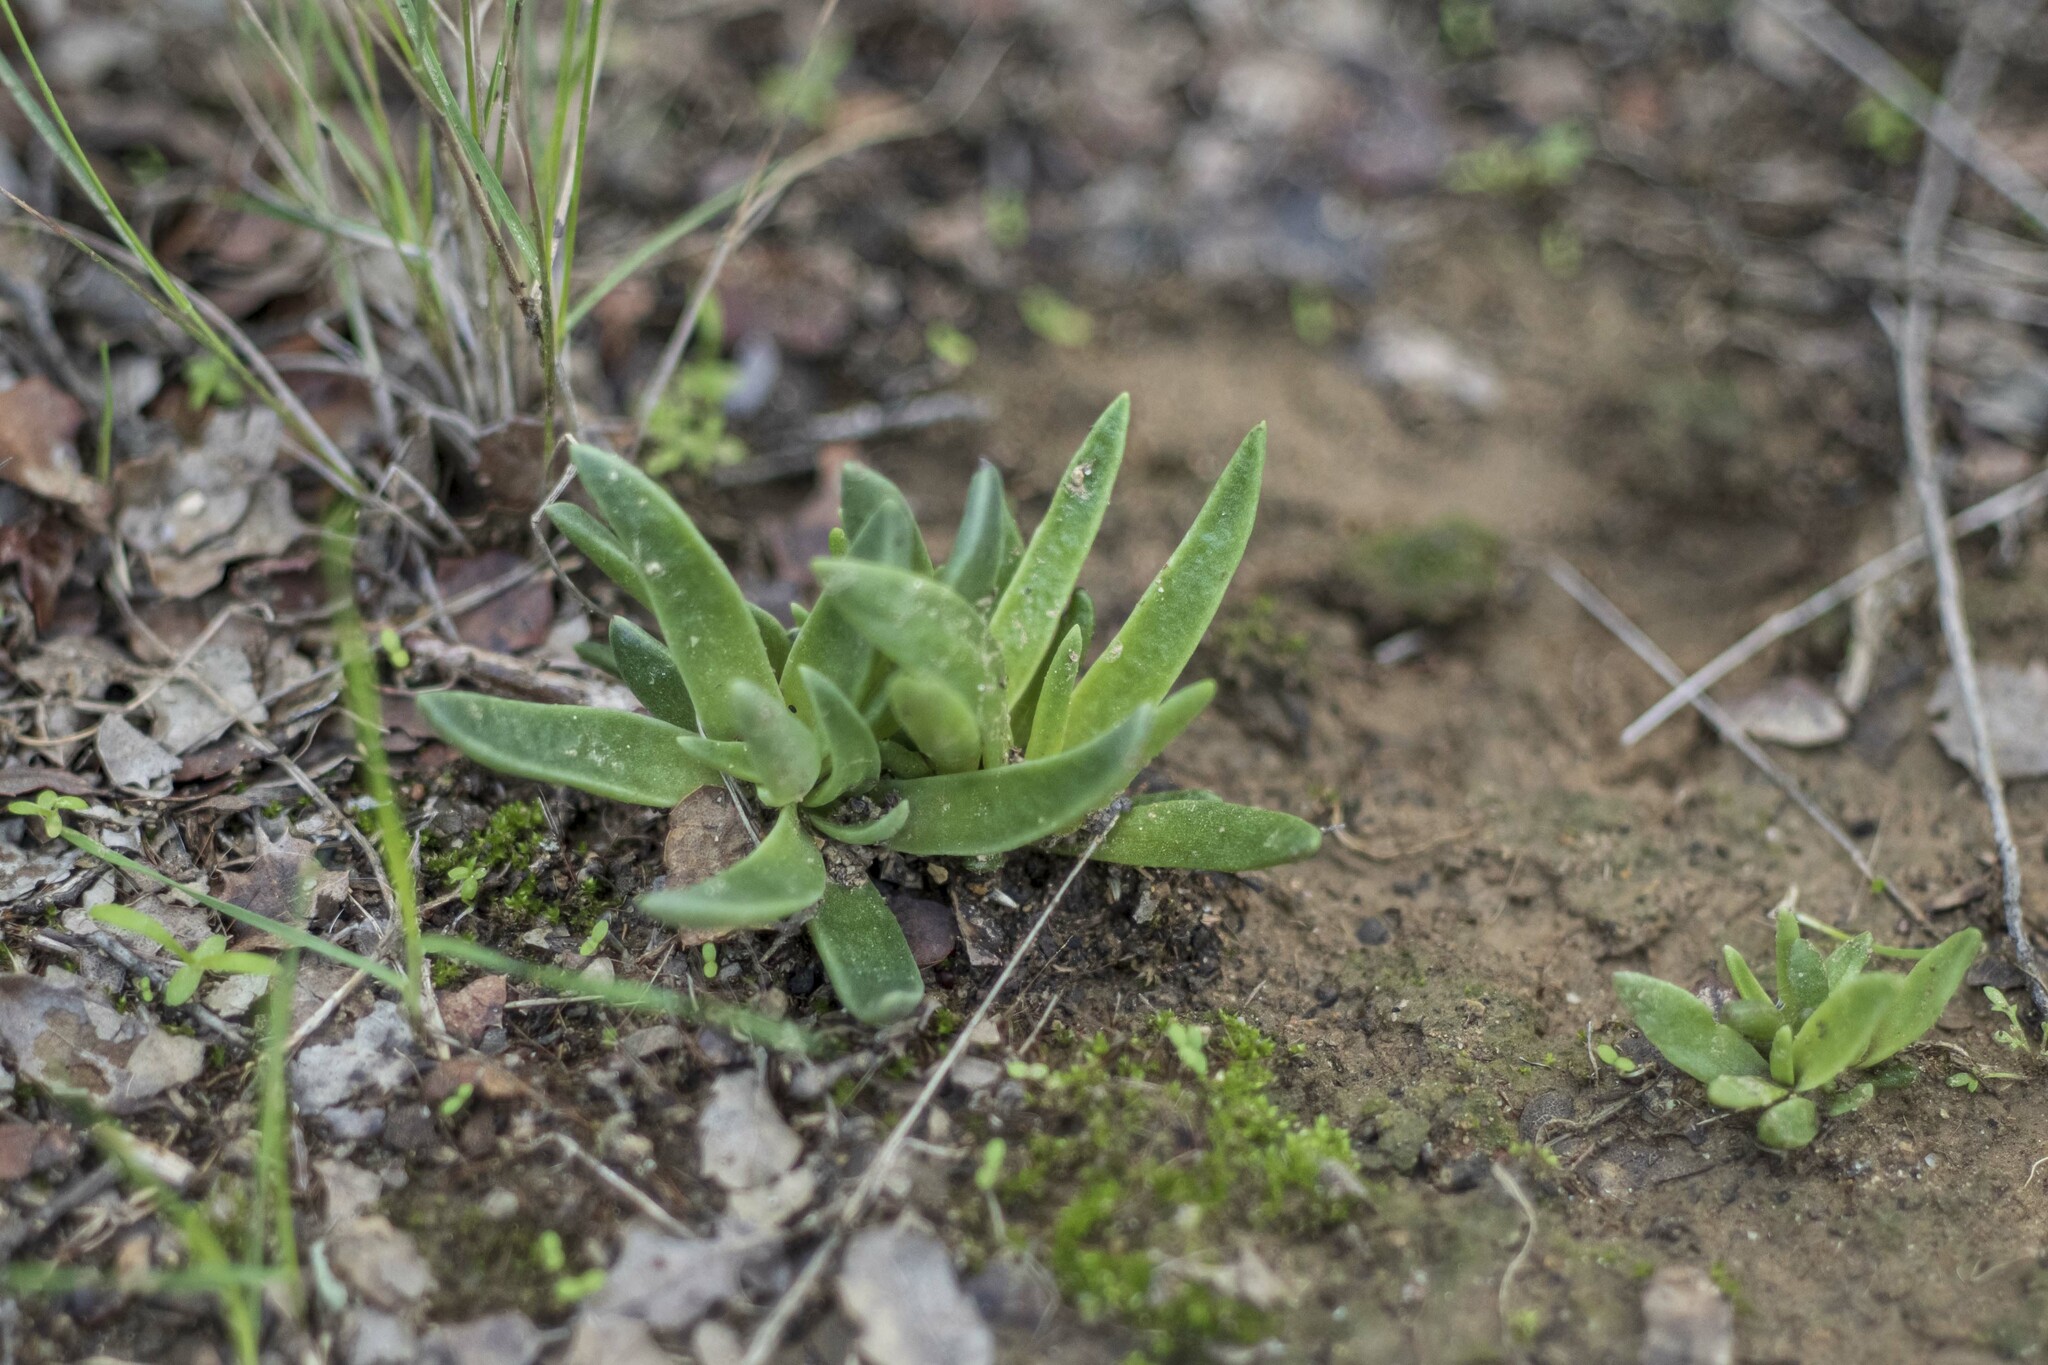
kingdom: Plantae
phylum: Tracheophyta
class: Magnoliopsida
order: Saxifragales
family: Crassulaceae
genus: Dudleya
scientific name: Dudleya lanceolata
